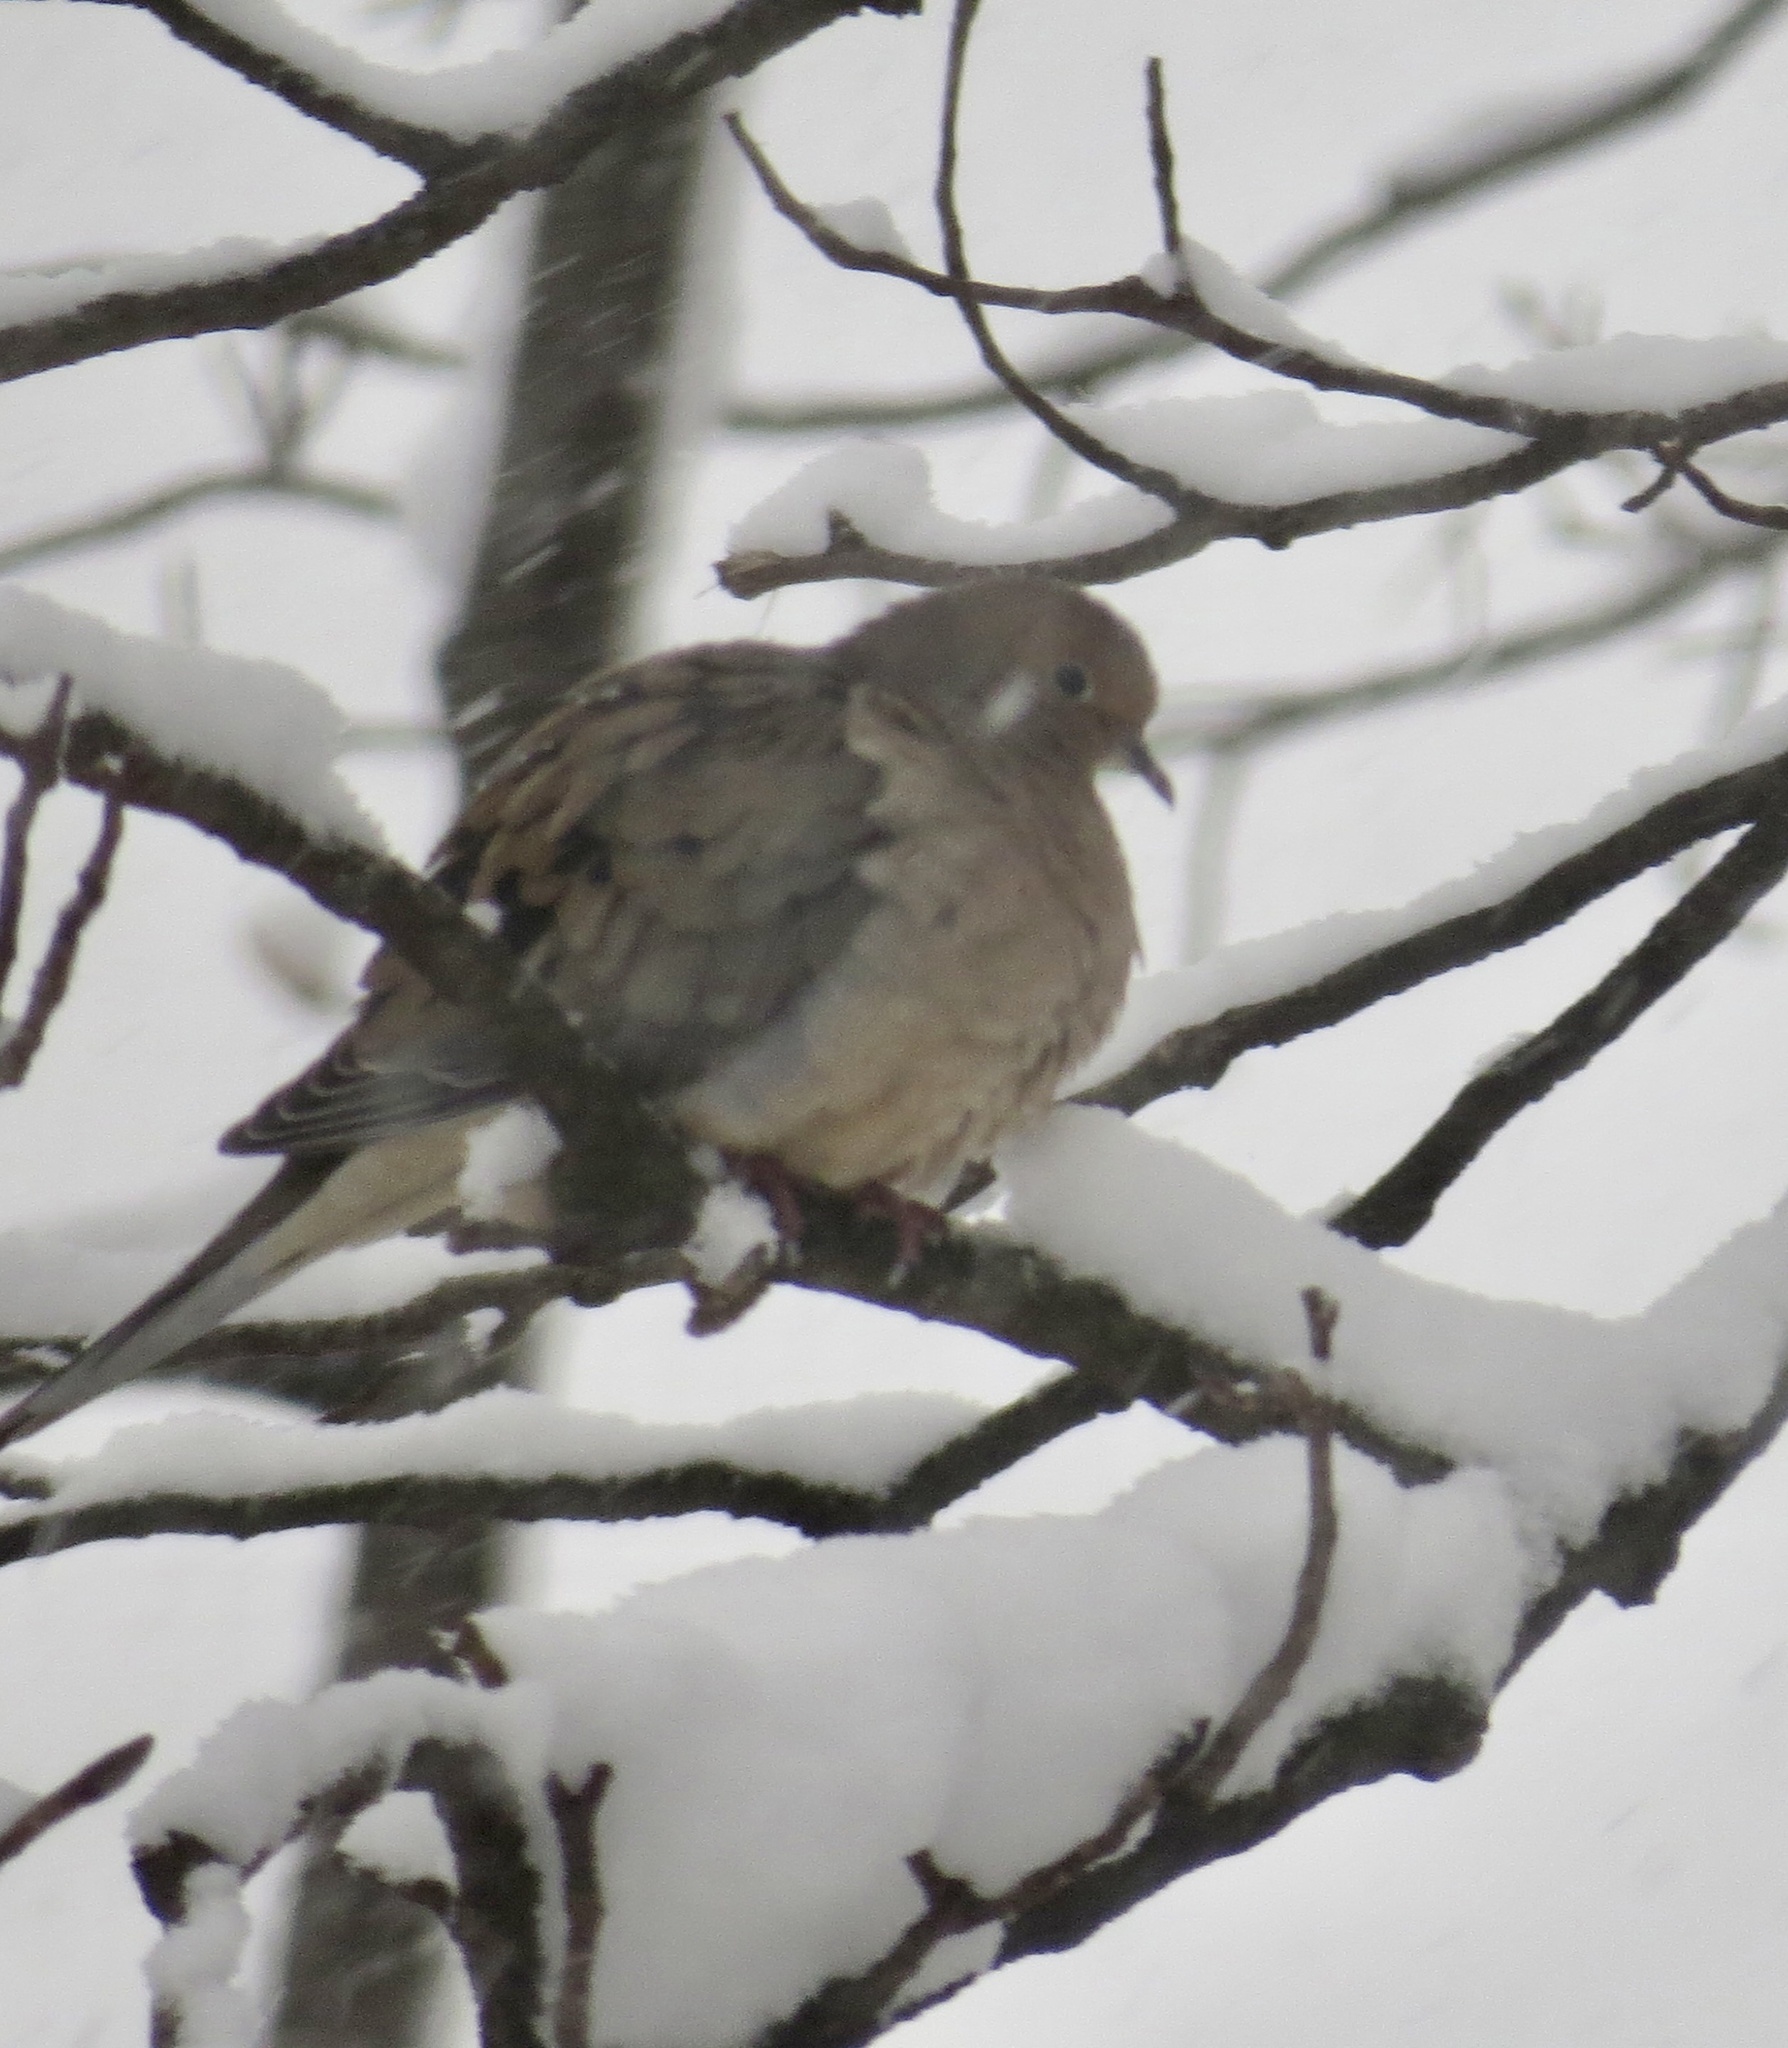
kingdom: Animalia
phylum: Chordata
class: Aves
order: Columbiformes
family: Columbidae
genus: Zenaida
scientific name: Zenaida macroura
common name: Mourning dove
